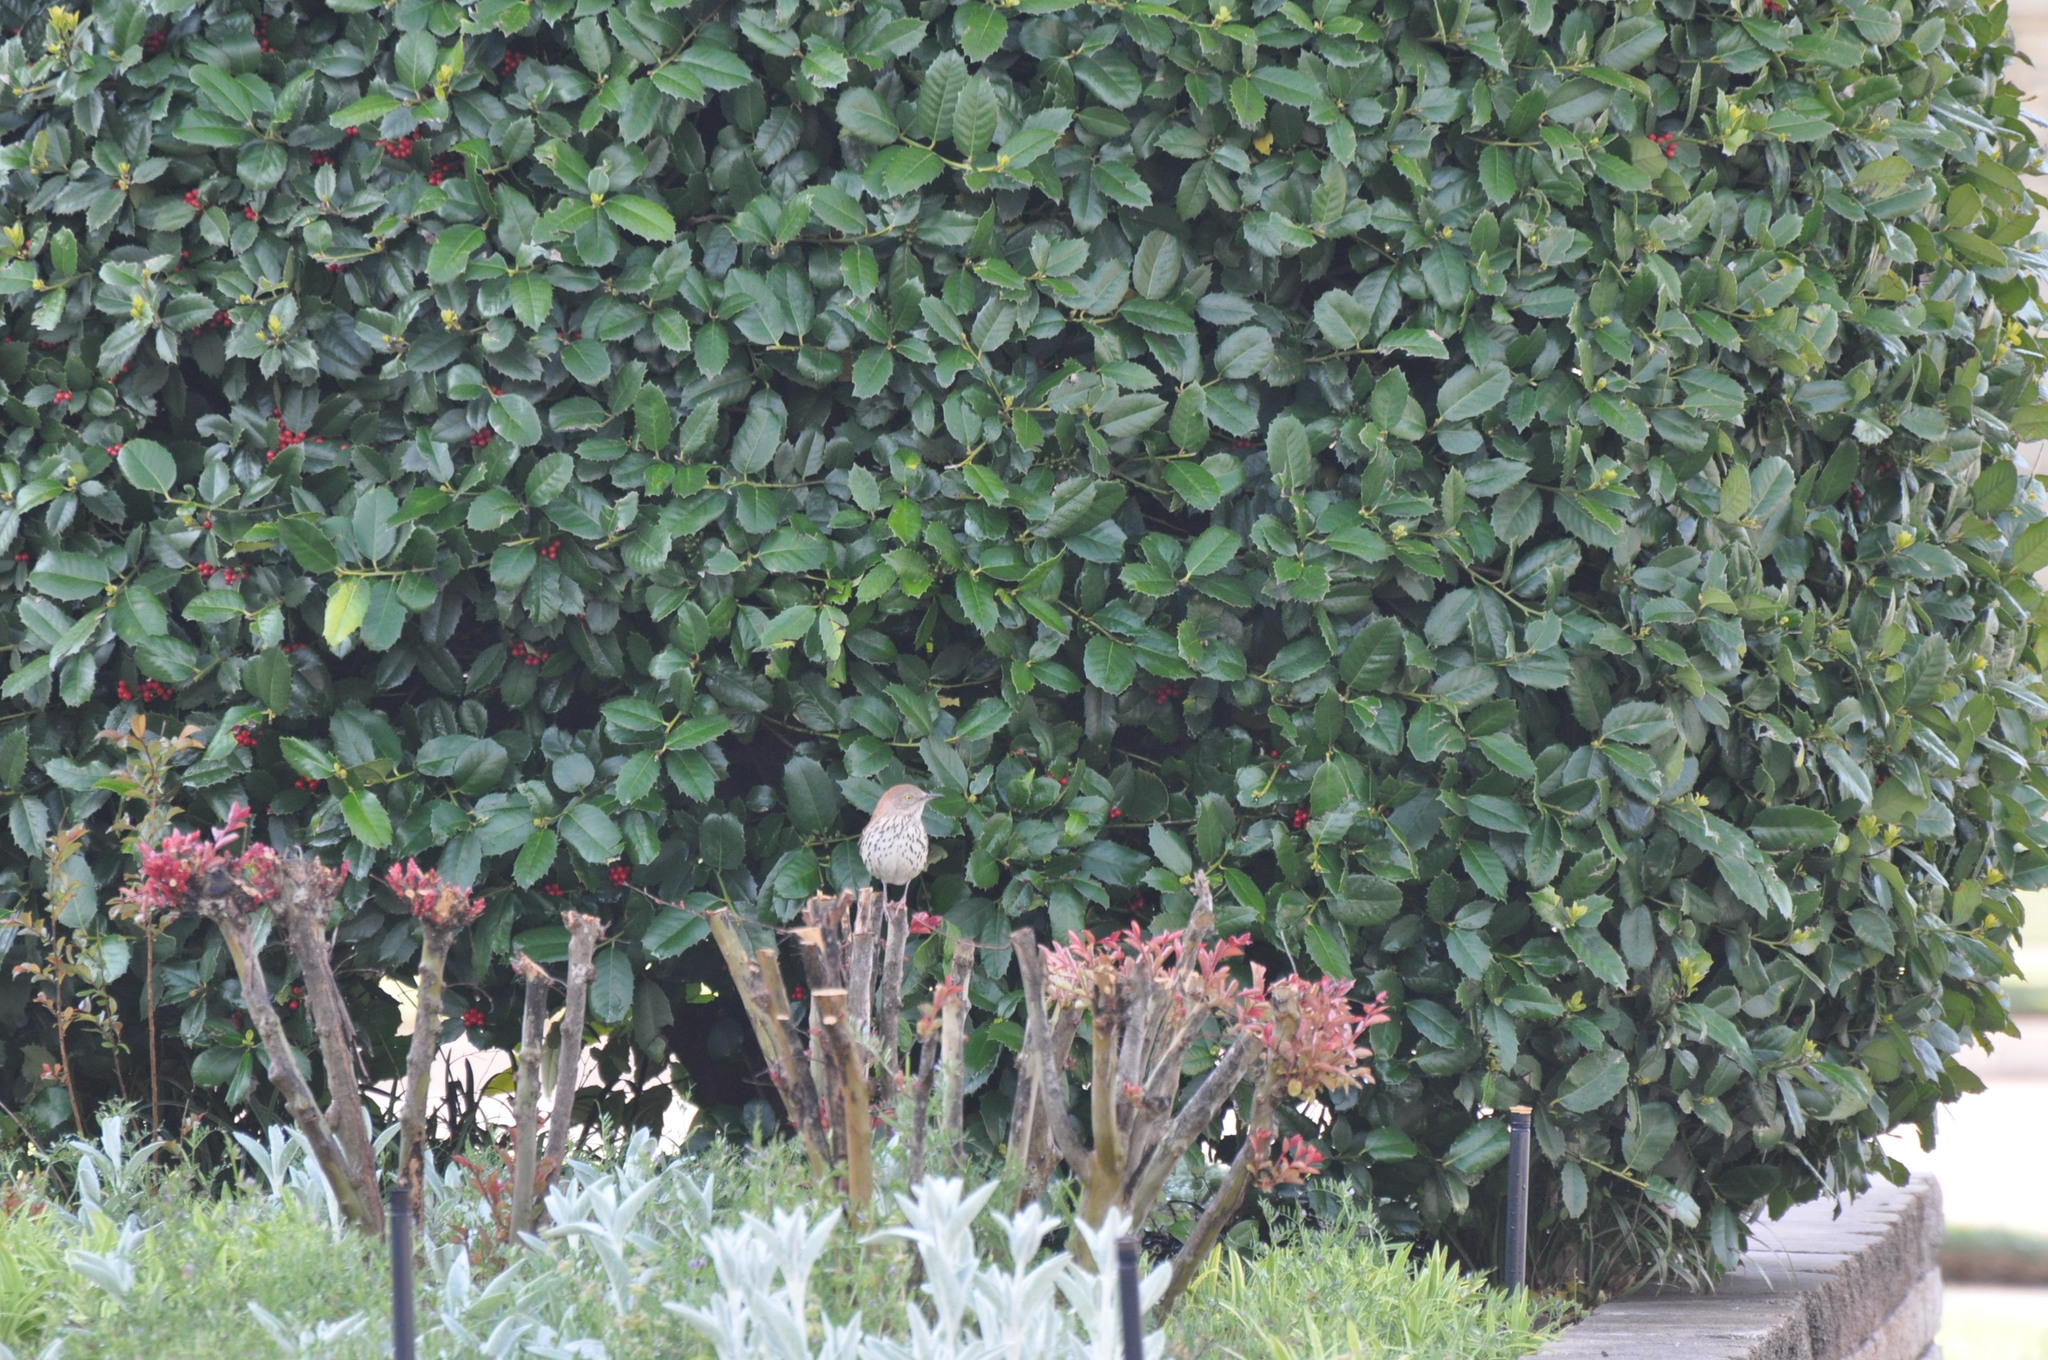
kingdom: Animalia
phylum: Chordata
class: Aves
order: Passeriformes
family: Mimidae
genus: Toxostoma
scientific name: Toxostoma rufum
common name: Brown thrasher
